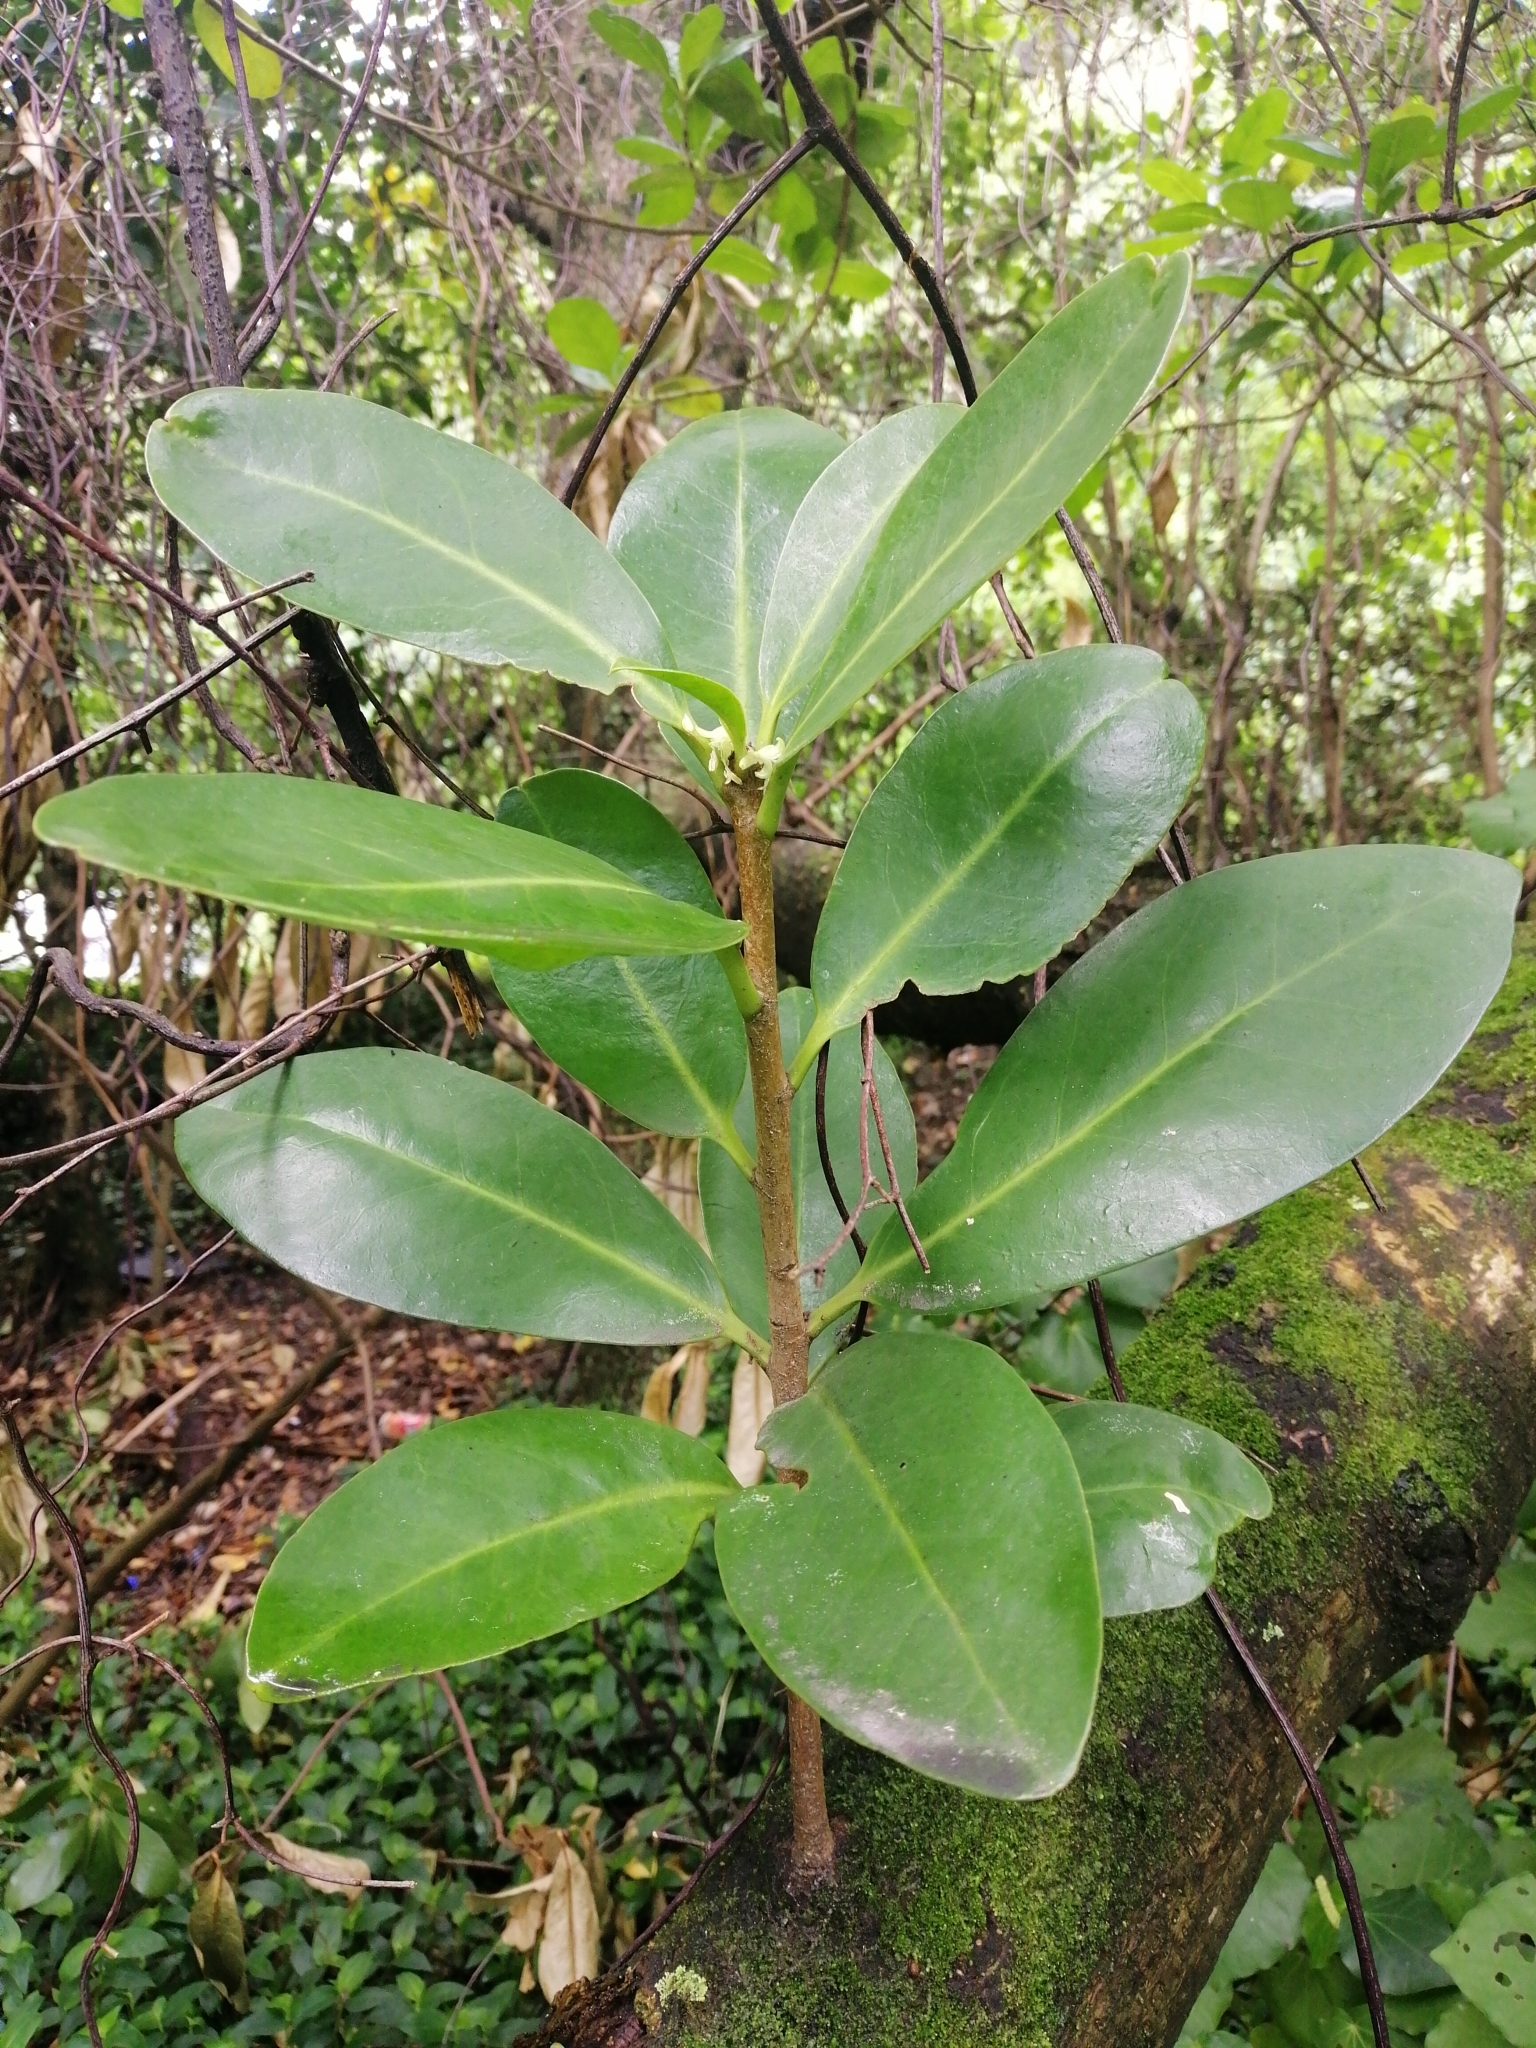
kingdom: Plantae
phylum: Tracheophyta
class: Magnoliopsida
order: Cucurbitales
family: Corynocarpaceae
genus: Corynocarpus
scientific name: Corynocarpus laevigatus
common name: New zealand laurel
